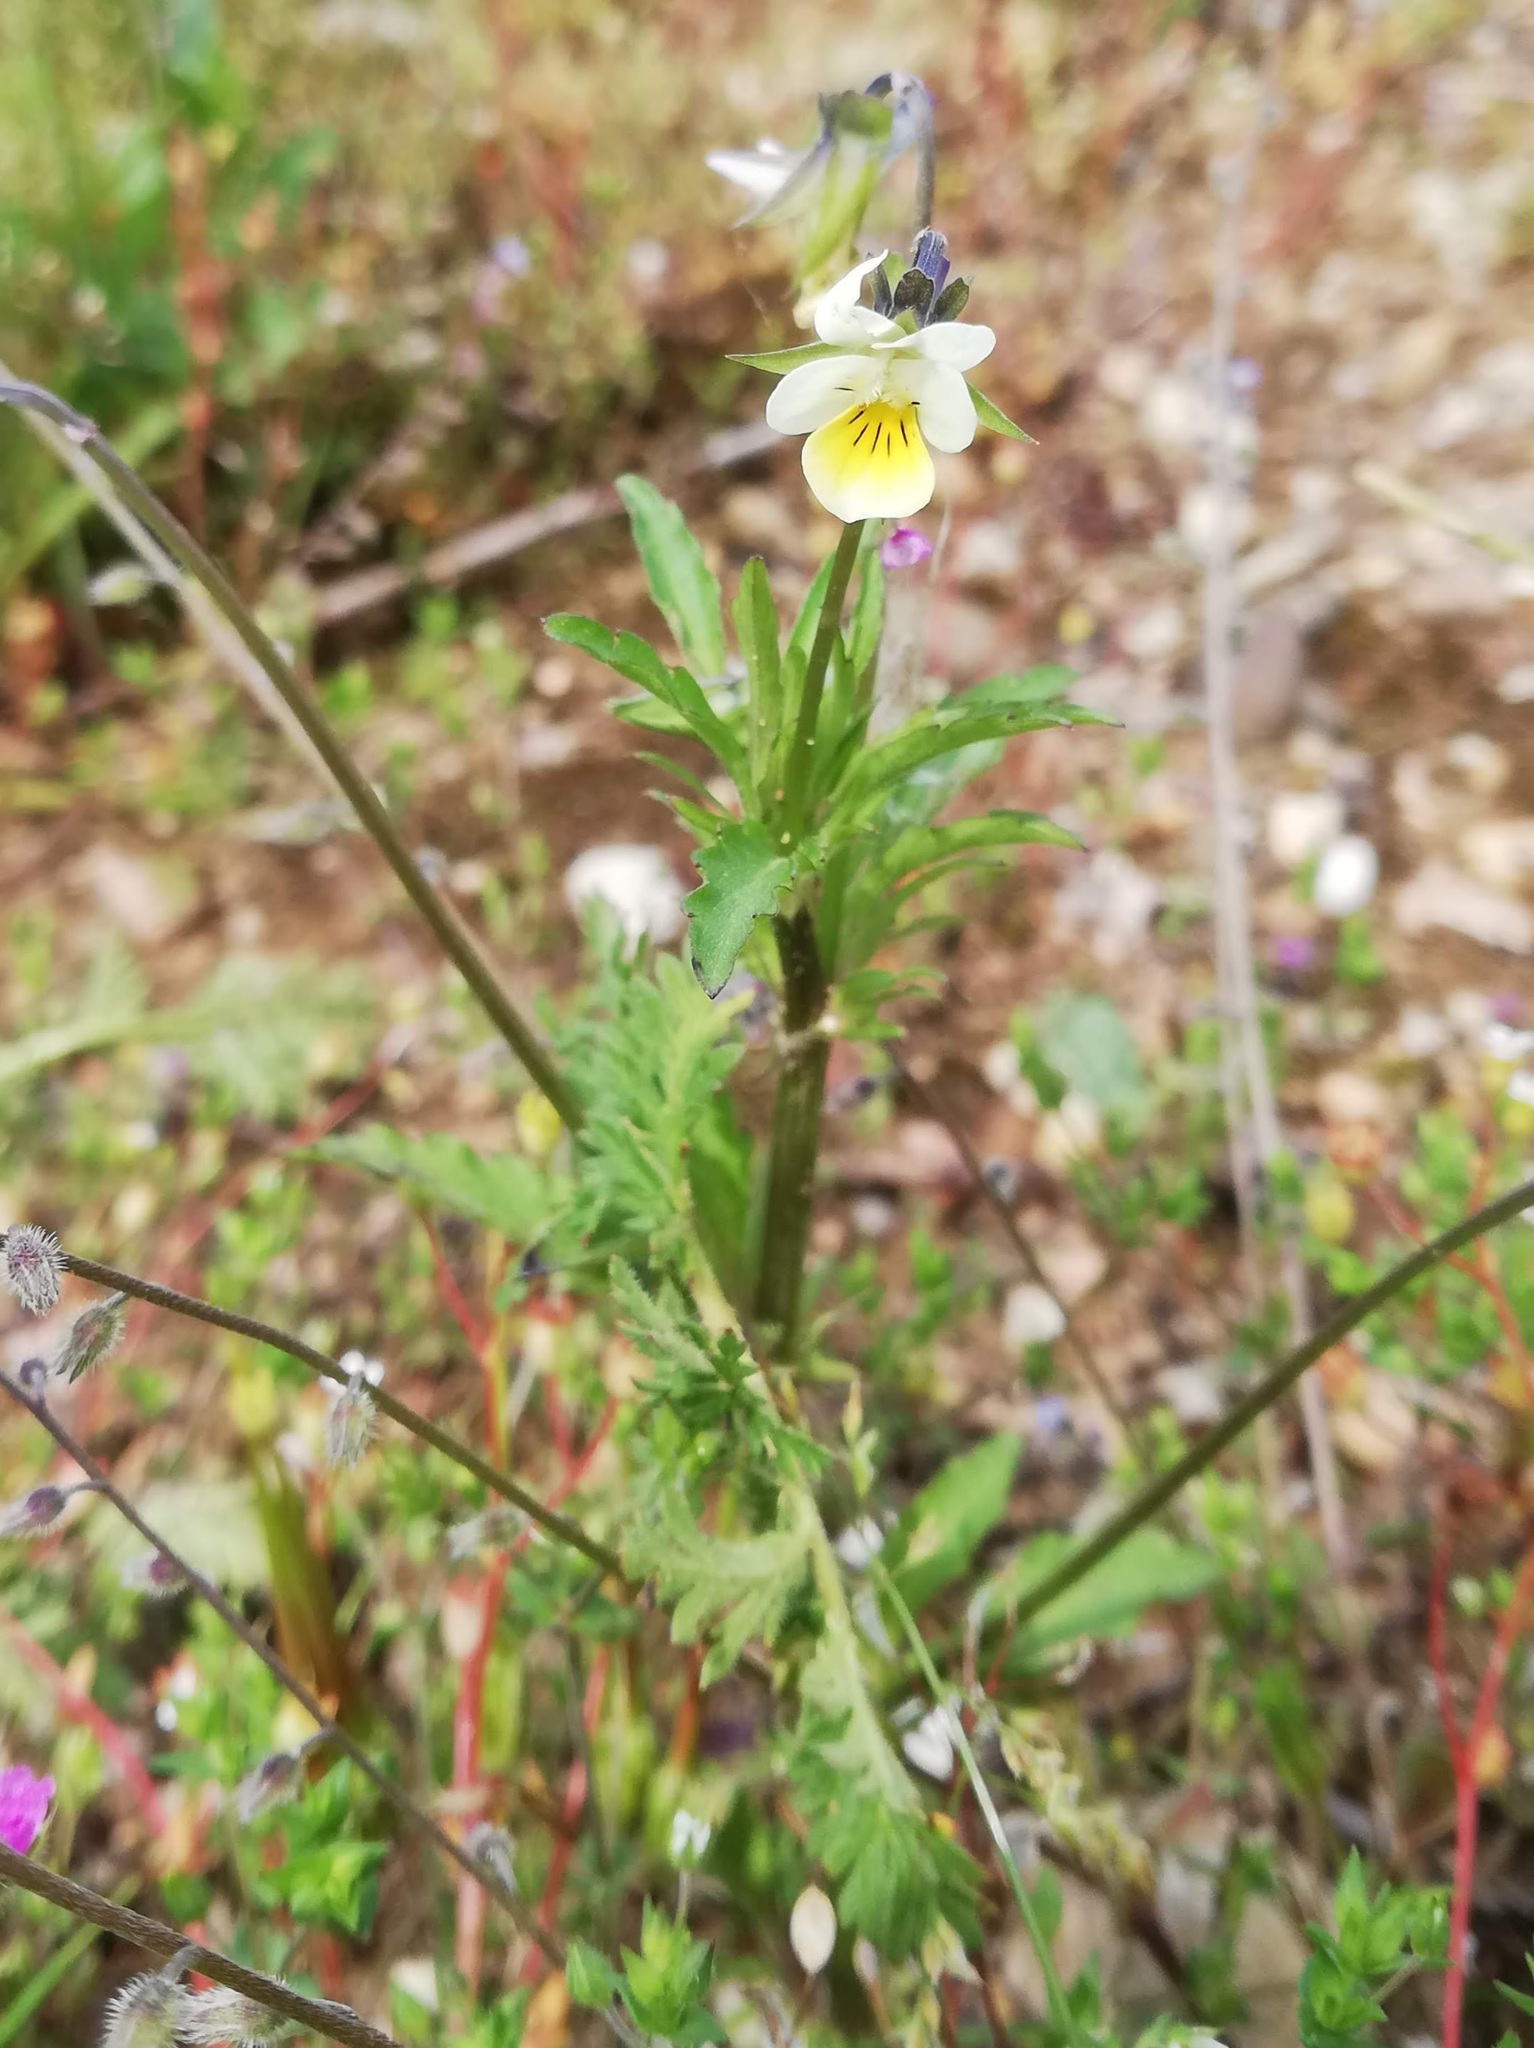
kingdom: Plantae
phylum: Tracheophyta
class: Magnoliopsida
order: Malpighiales
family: Violaceae
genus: Viola
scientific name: Viola arvensis
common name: Field pansy
